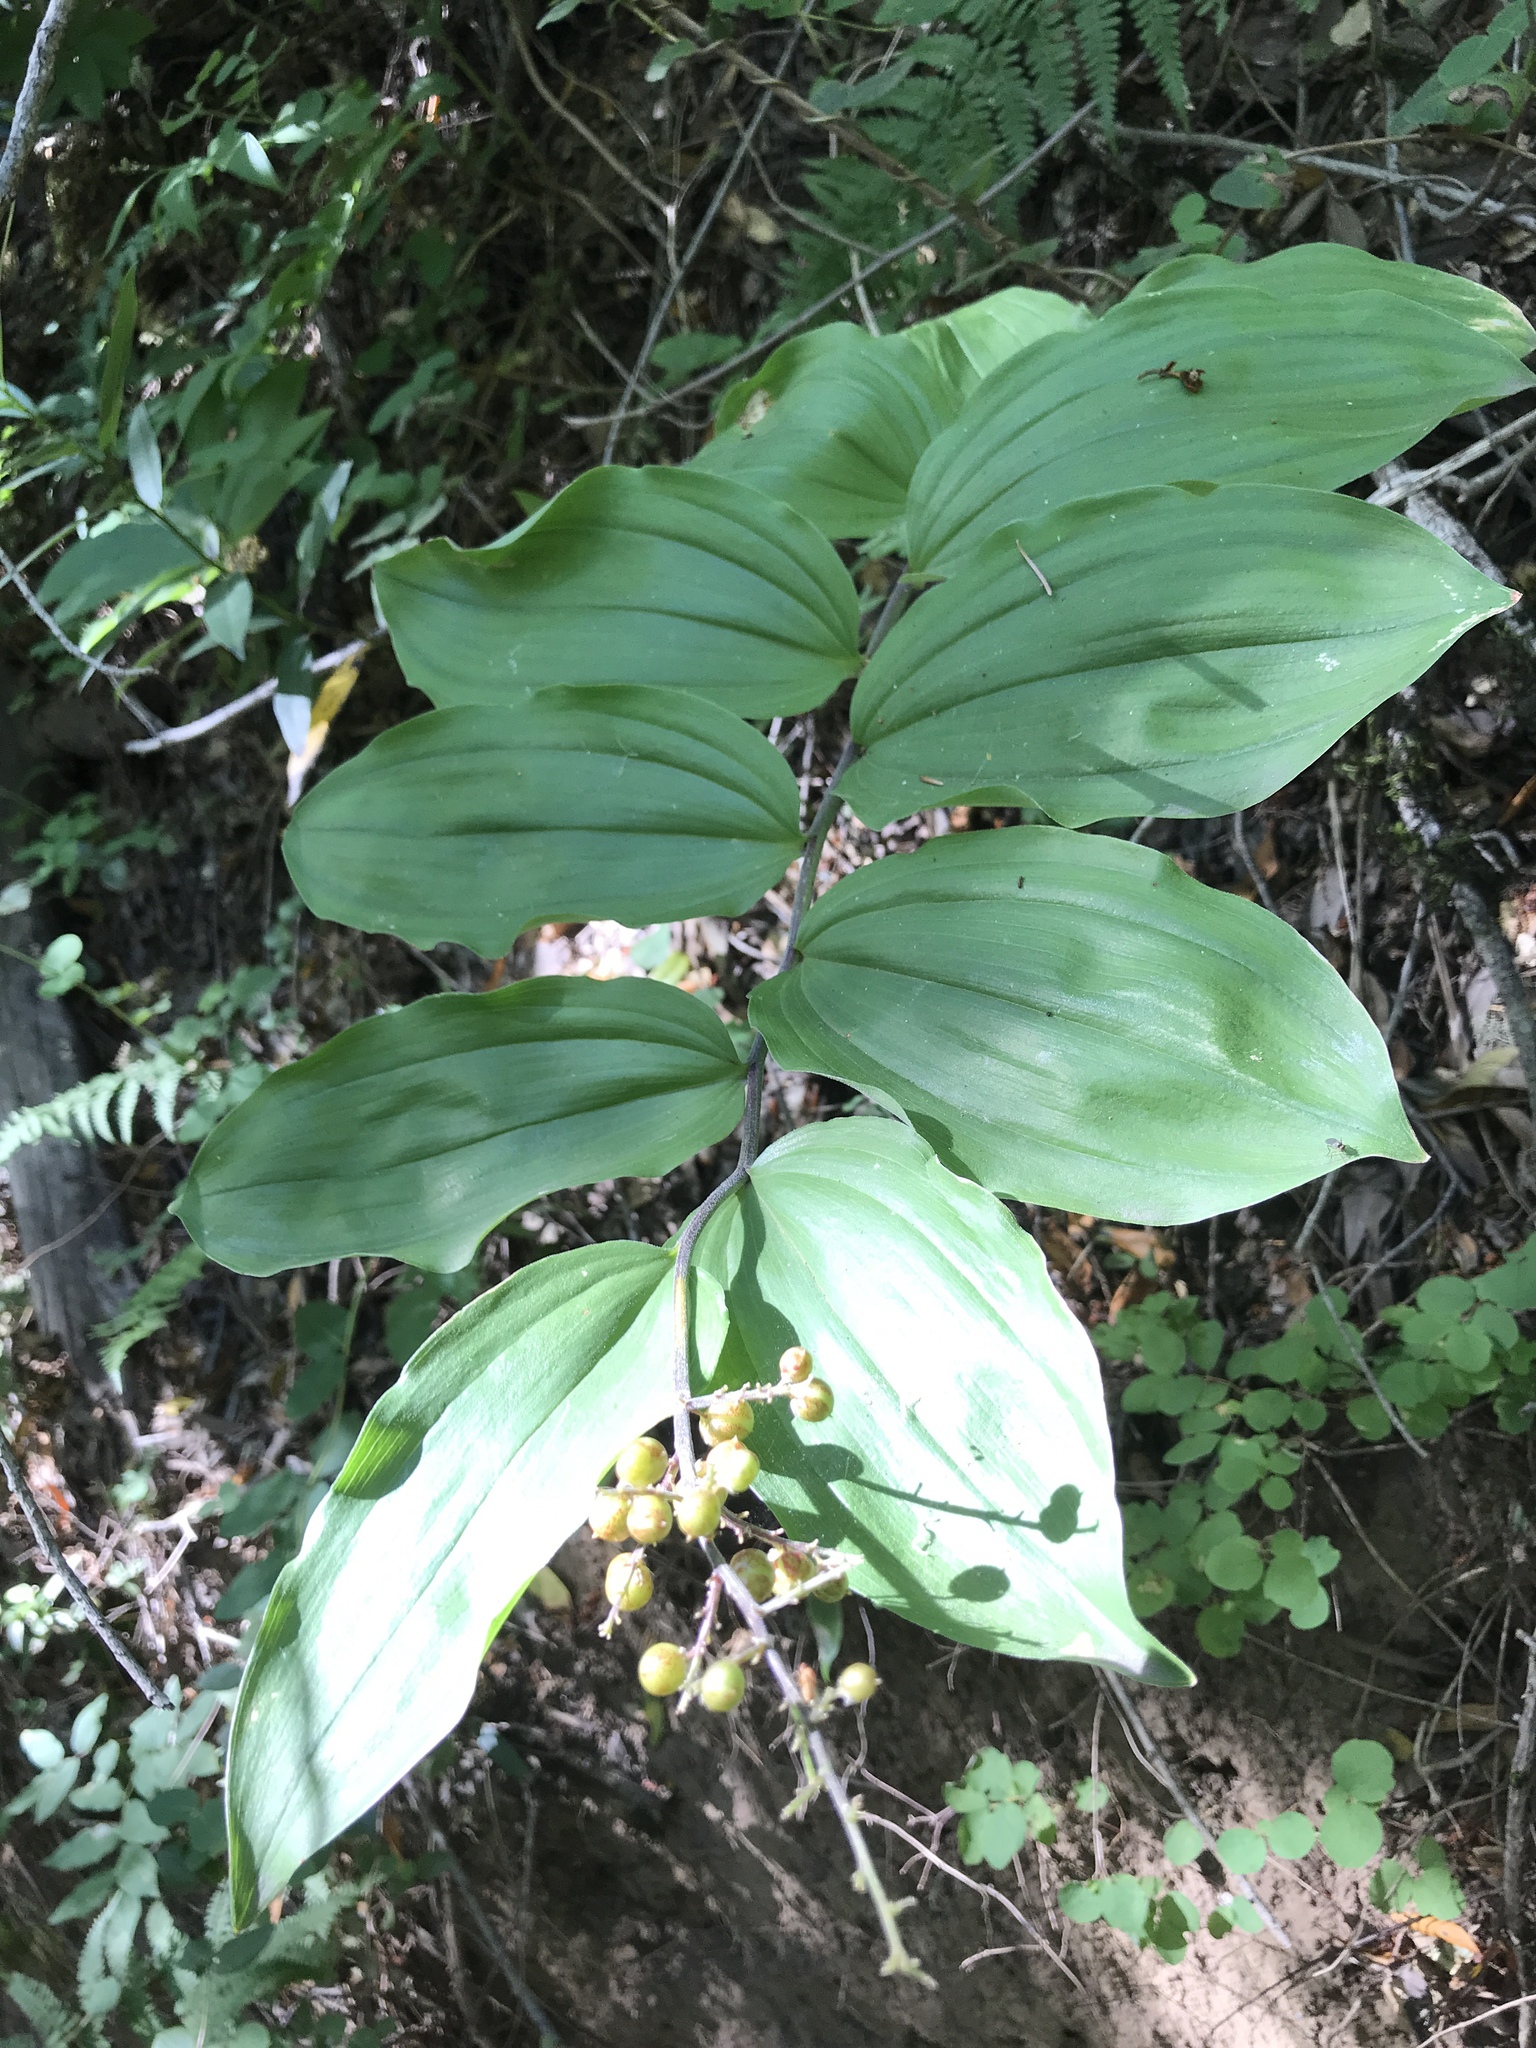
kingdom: Plantae
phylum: Tracheophyta
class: Liliopsida
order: Asparagales
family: Asparagaceae
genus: Maianthemum
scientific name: Maianthemum racemosum
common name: False spikenard
